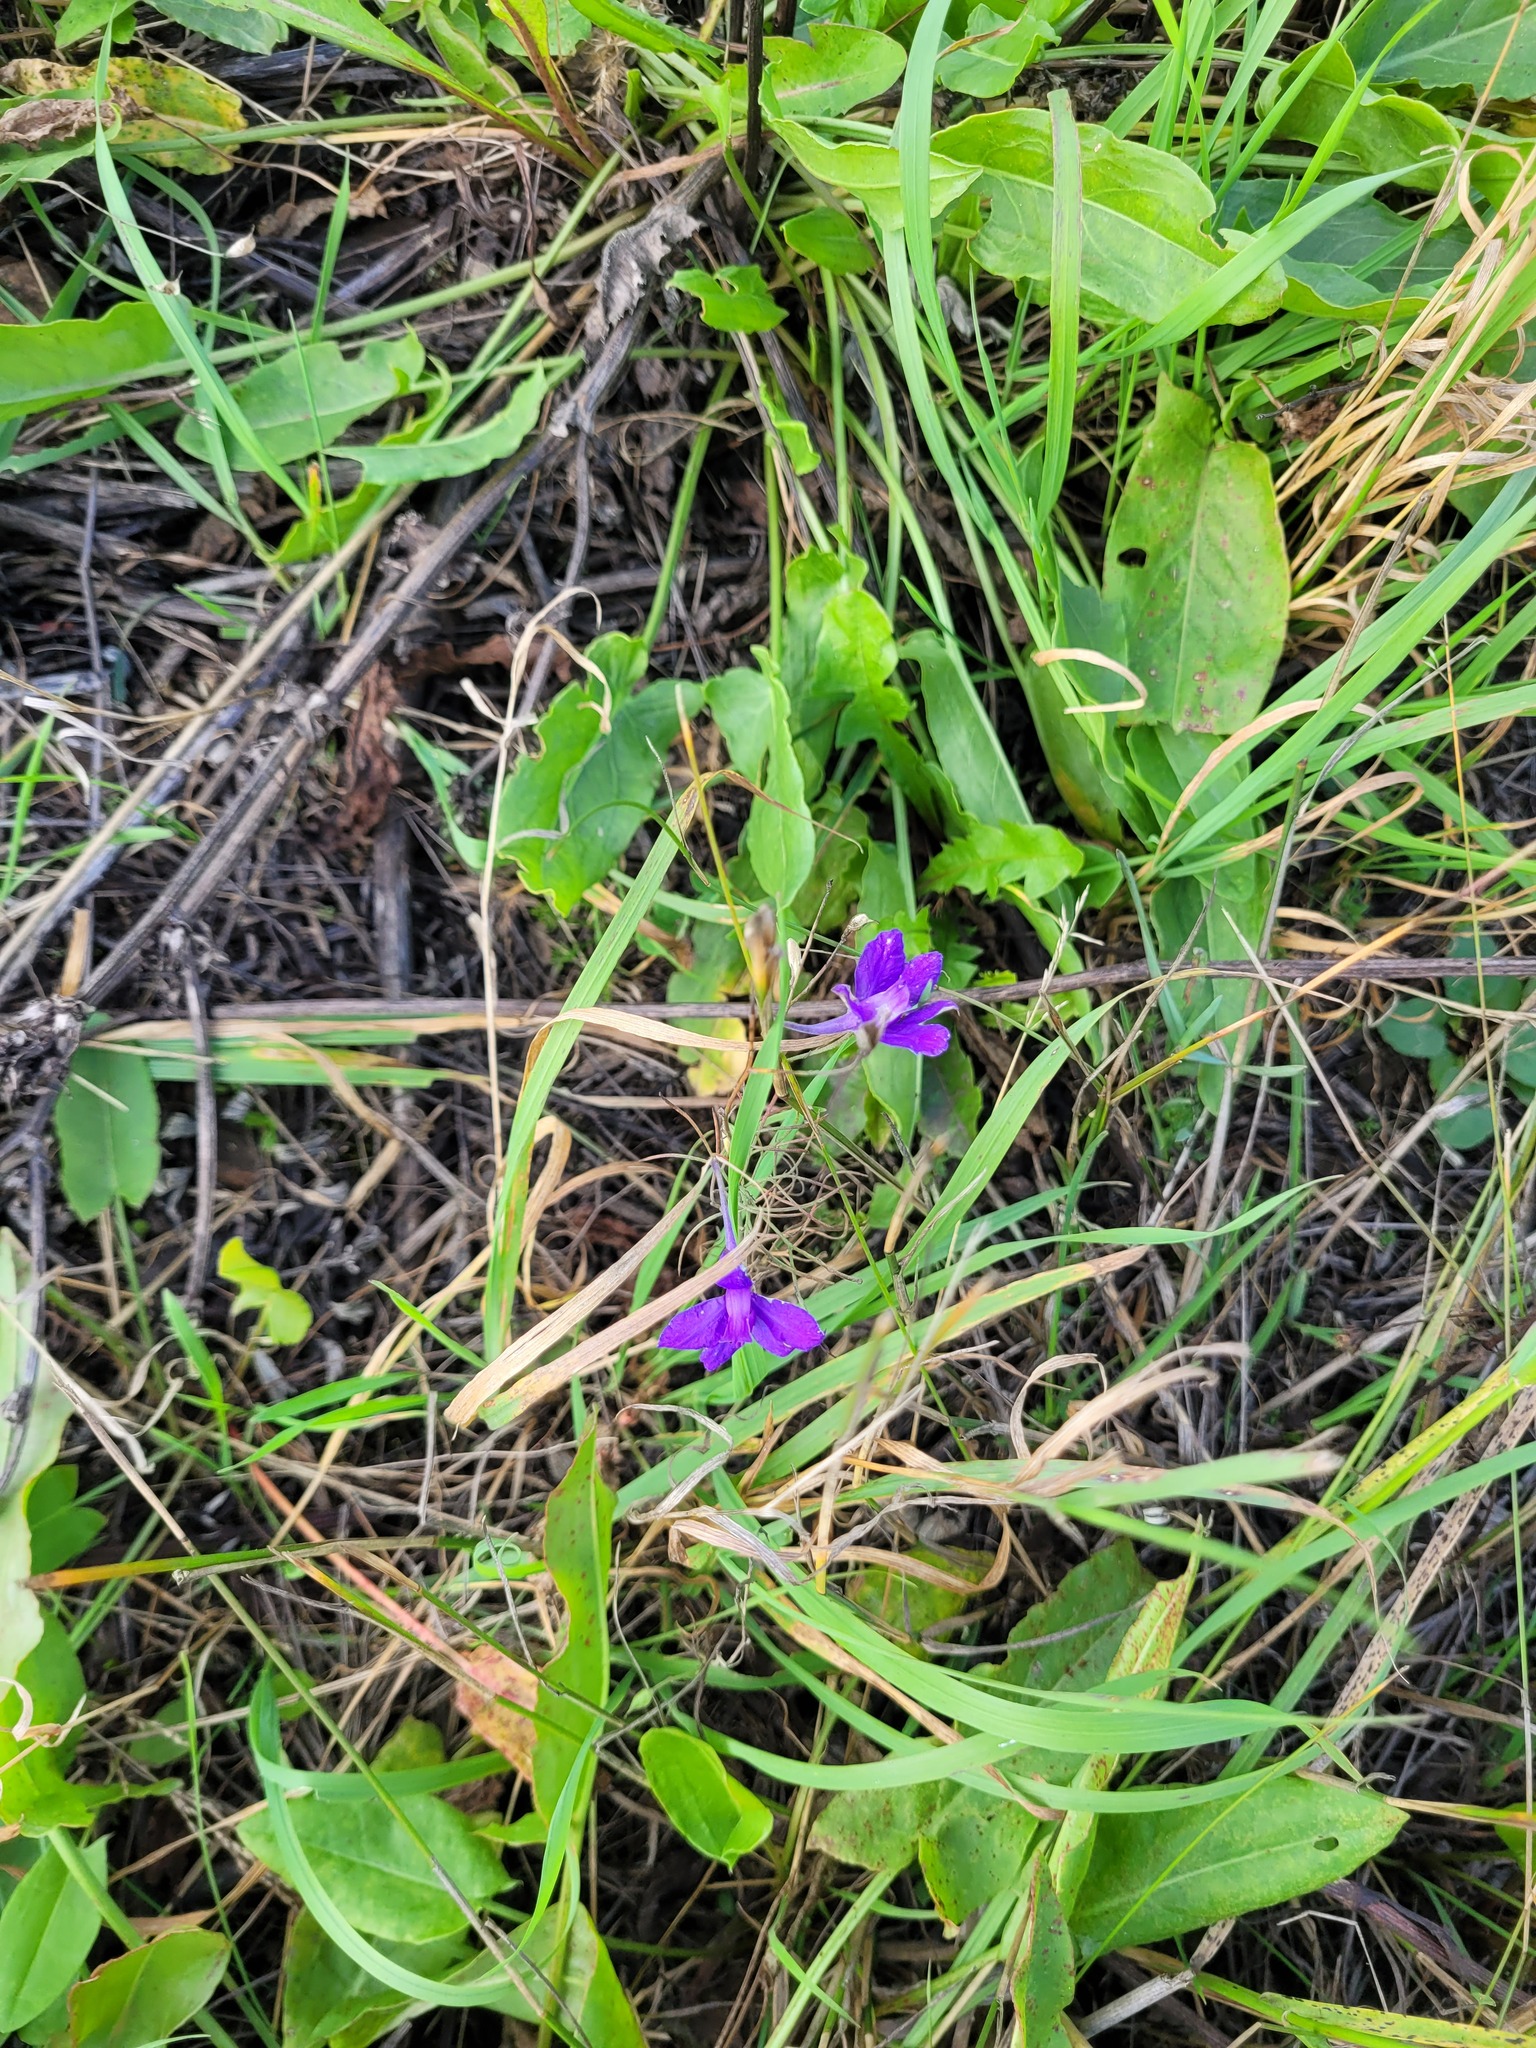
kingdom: Plantae
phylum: Tracheophyta
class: Magnoliopsida
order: Ranunculales
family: Ranunculaceae
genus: Delphinium
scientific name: Delphinium consolida
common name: Branching larkspur
